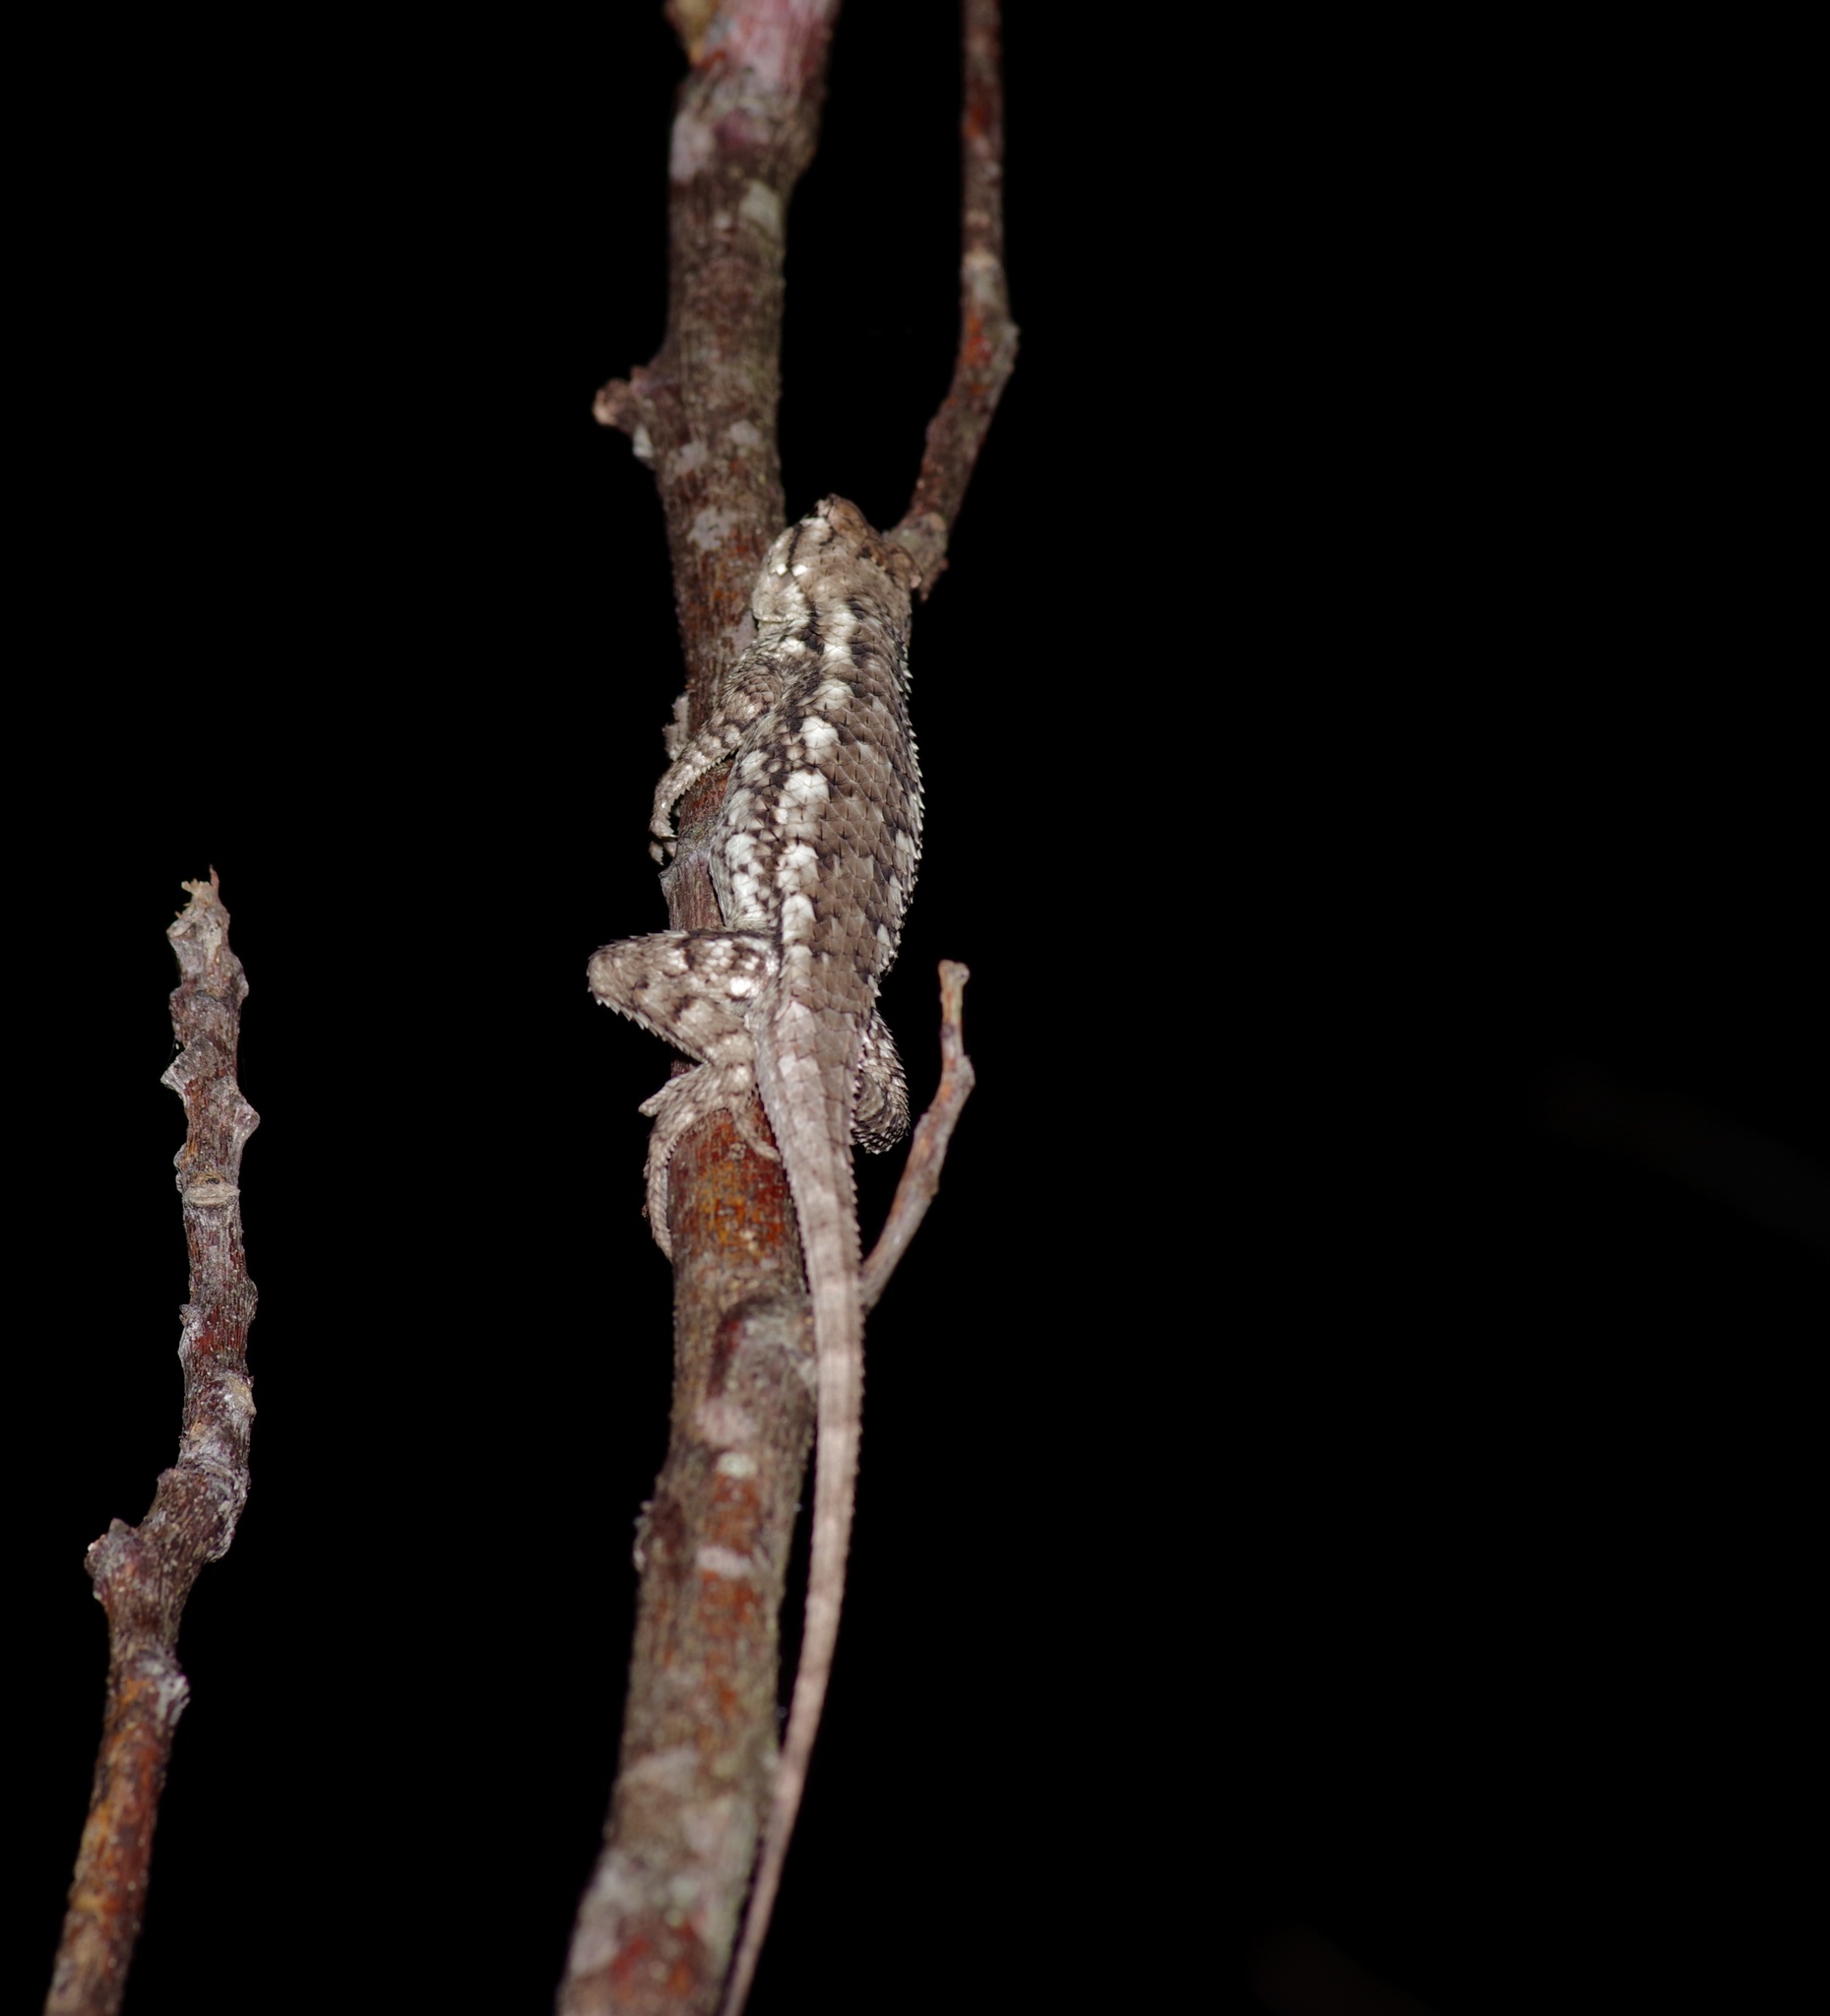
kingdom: Animalia
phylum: Chordata
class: Squamata
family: Phrynosomatidae
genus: Sceloporus
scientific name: Sceloporus olivaceus
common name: Texas spiny lizard
